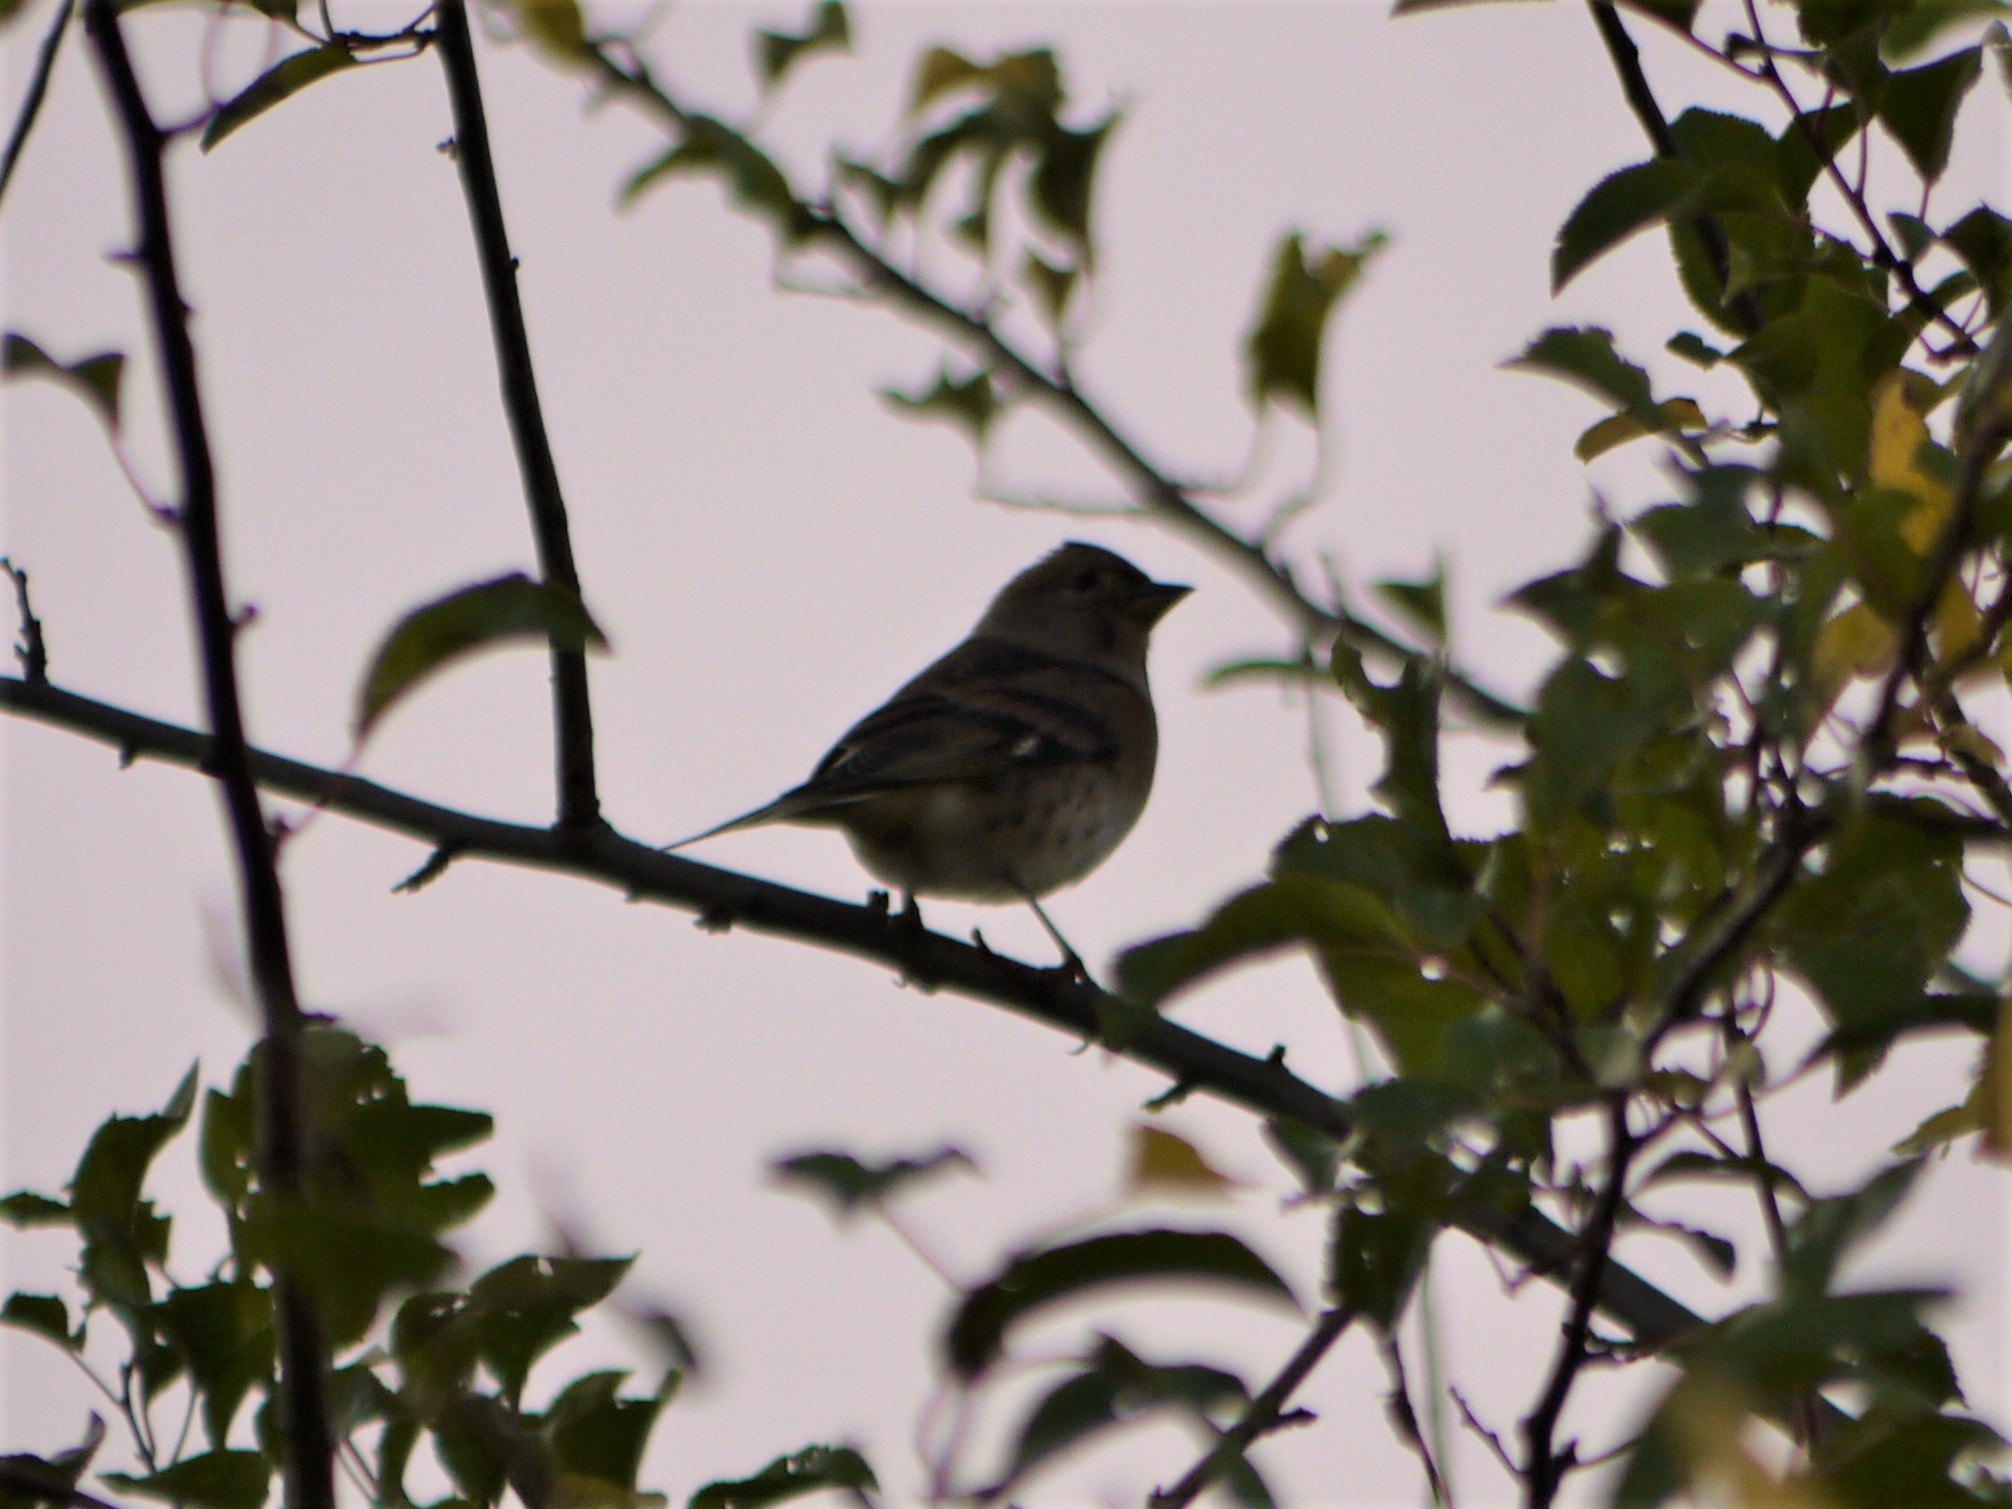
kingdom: Animalia
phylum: Chordata
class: Aves
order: Passeriformes
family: Fringillidae
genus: Fringilla
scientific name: Fringilla montifringilla
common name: Brambling
